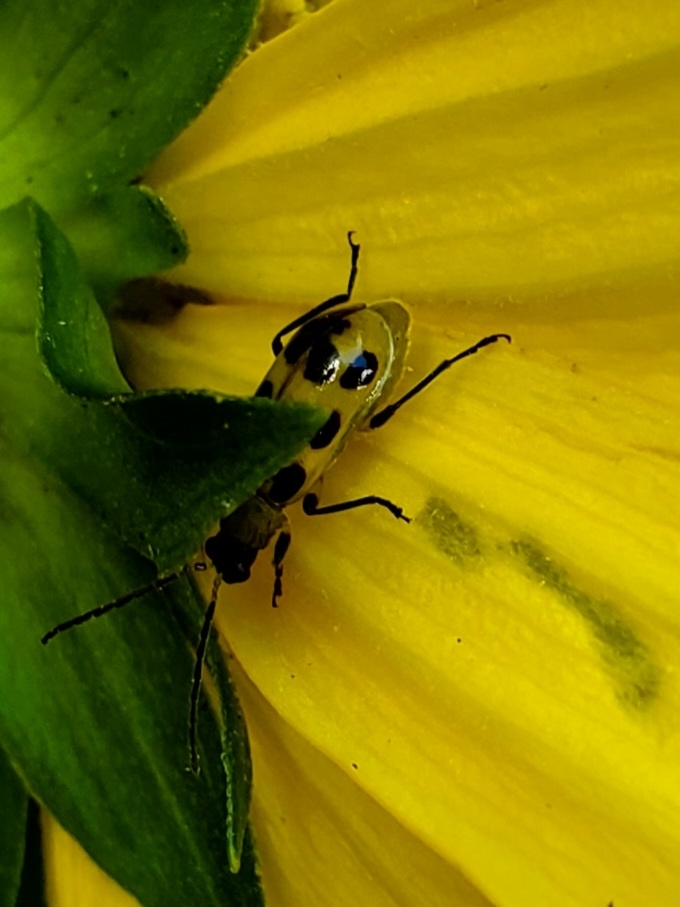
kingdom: Animalia
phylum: Arthropoda
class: Insecta
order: Coleoptera
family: Chrysomelidae
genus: Diabrotica
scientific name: Diabrotica undecimpunctata
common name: Spotted cucumber beetle
